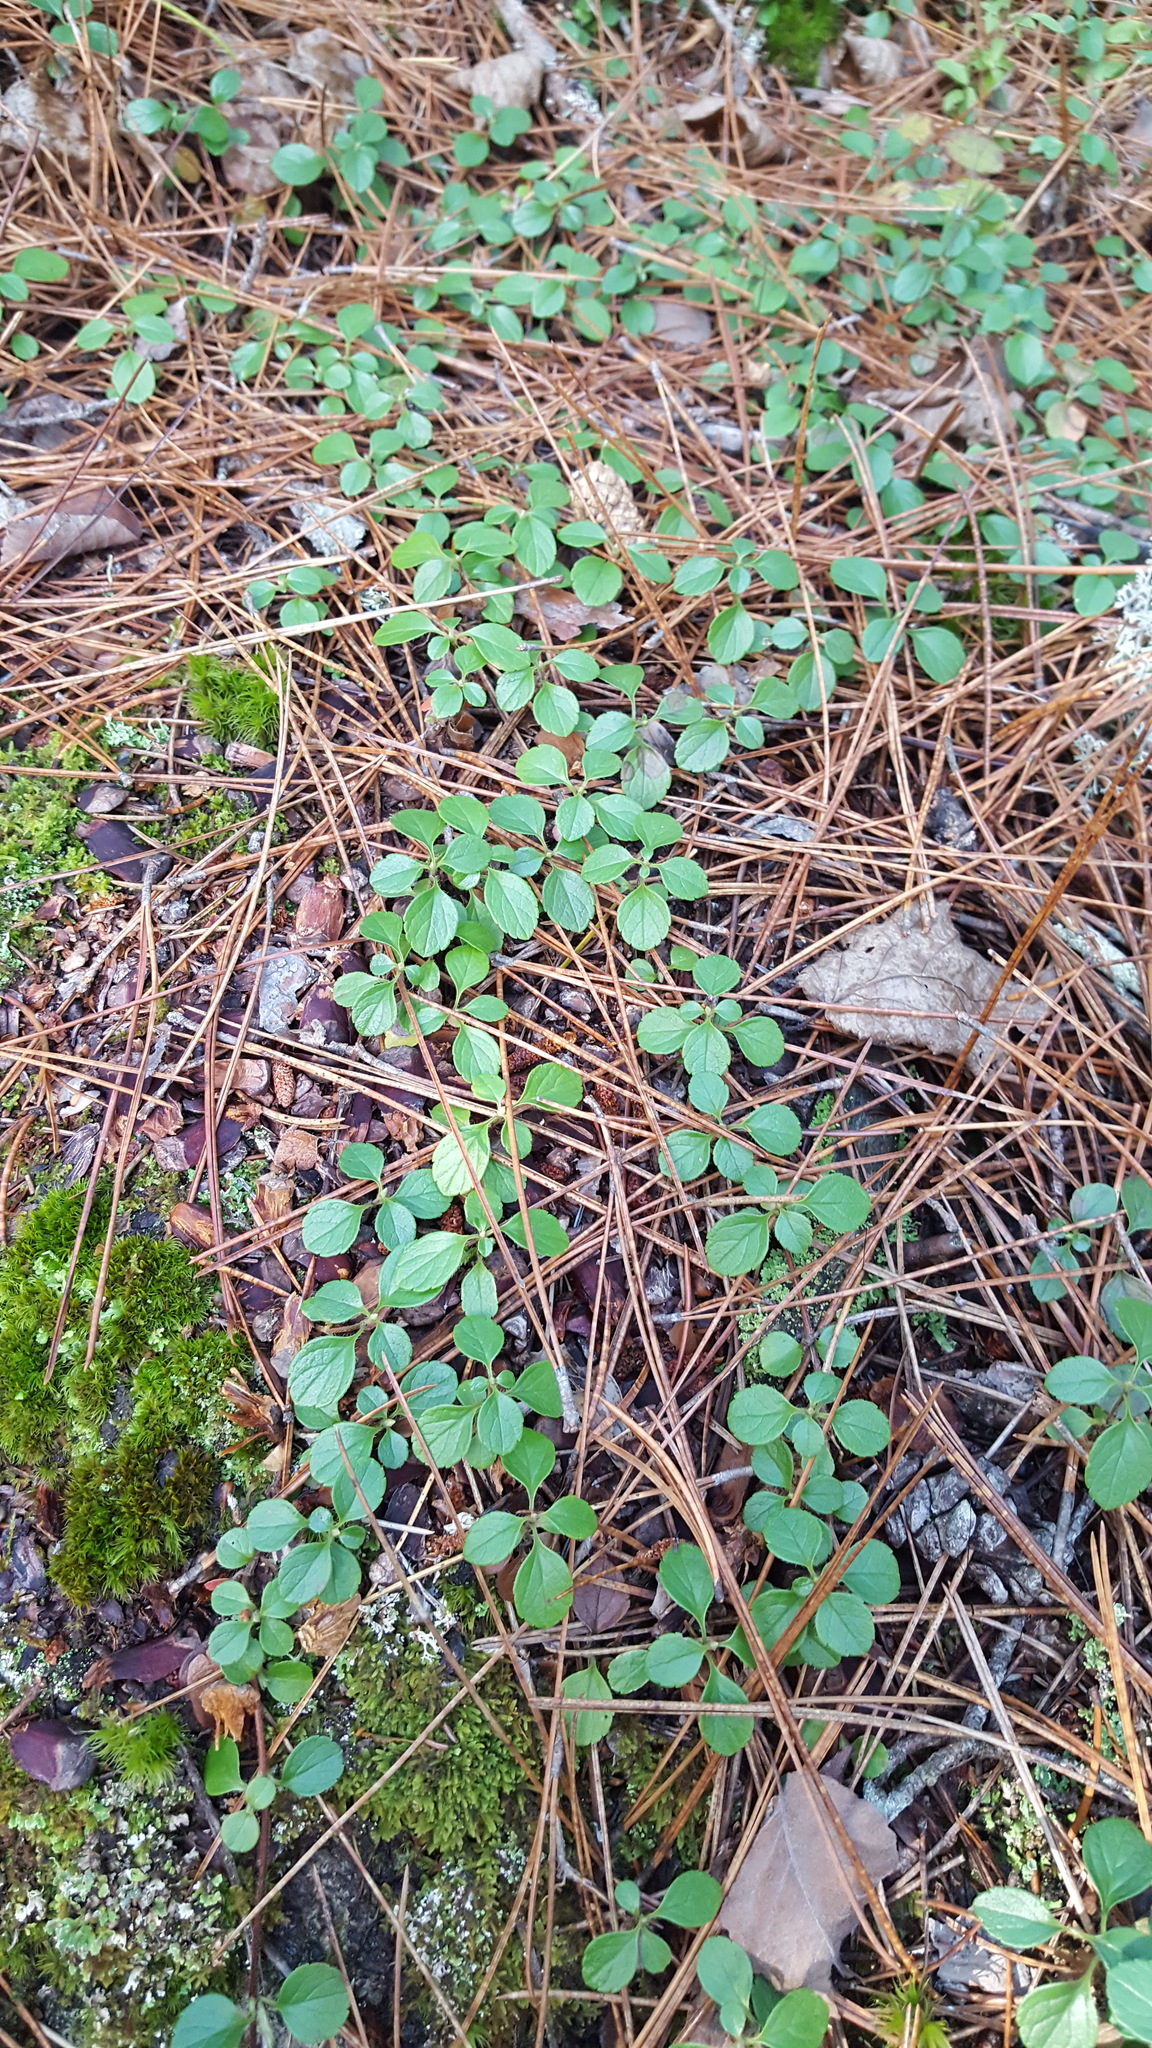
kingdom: Plantae
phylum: Tracheophyta
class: Magnoliopsida
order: Dipsacales
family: Caprifoliaceae
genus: Linnaea
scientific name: Linnaea borealis
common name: Twinflower
